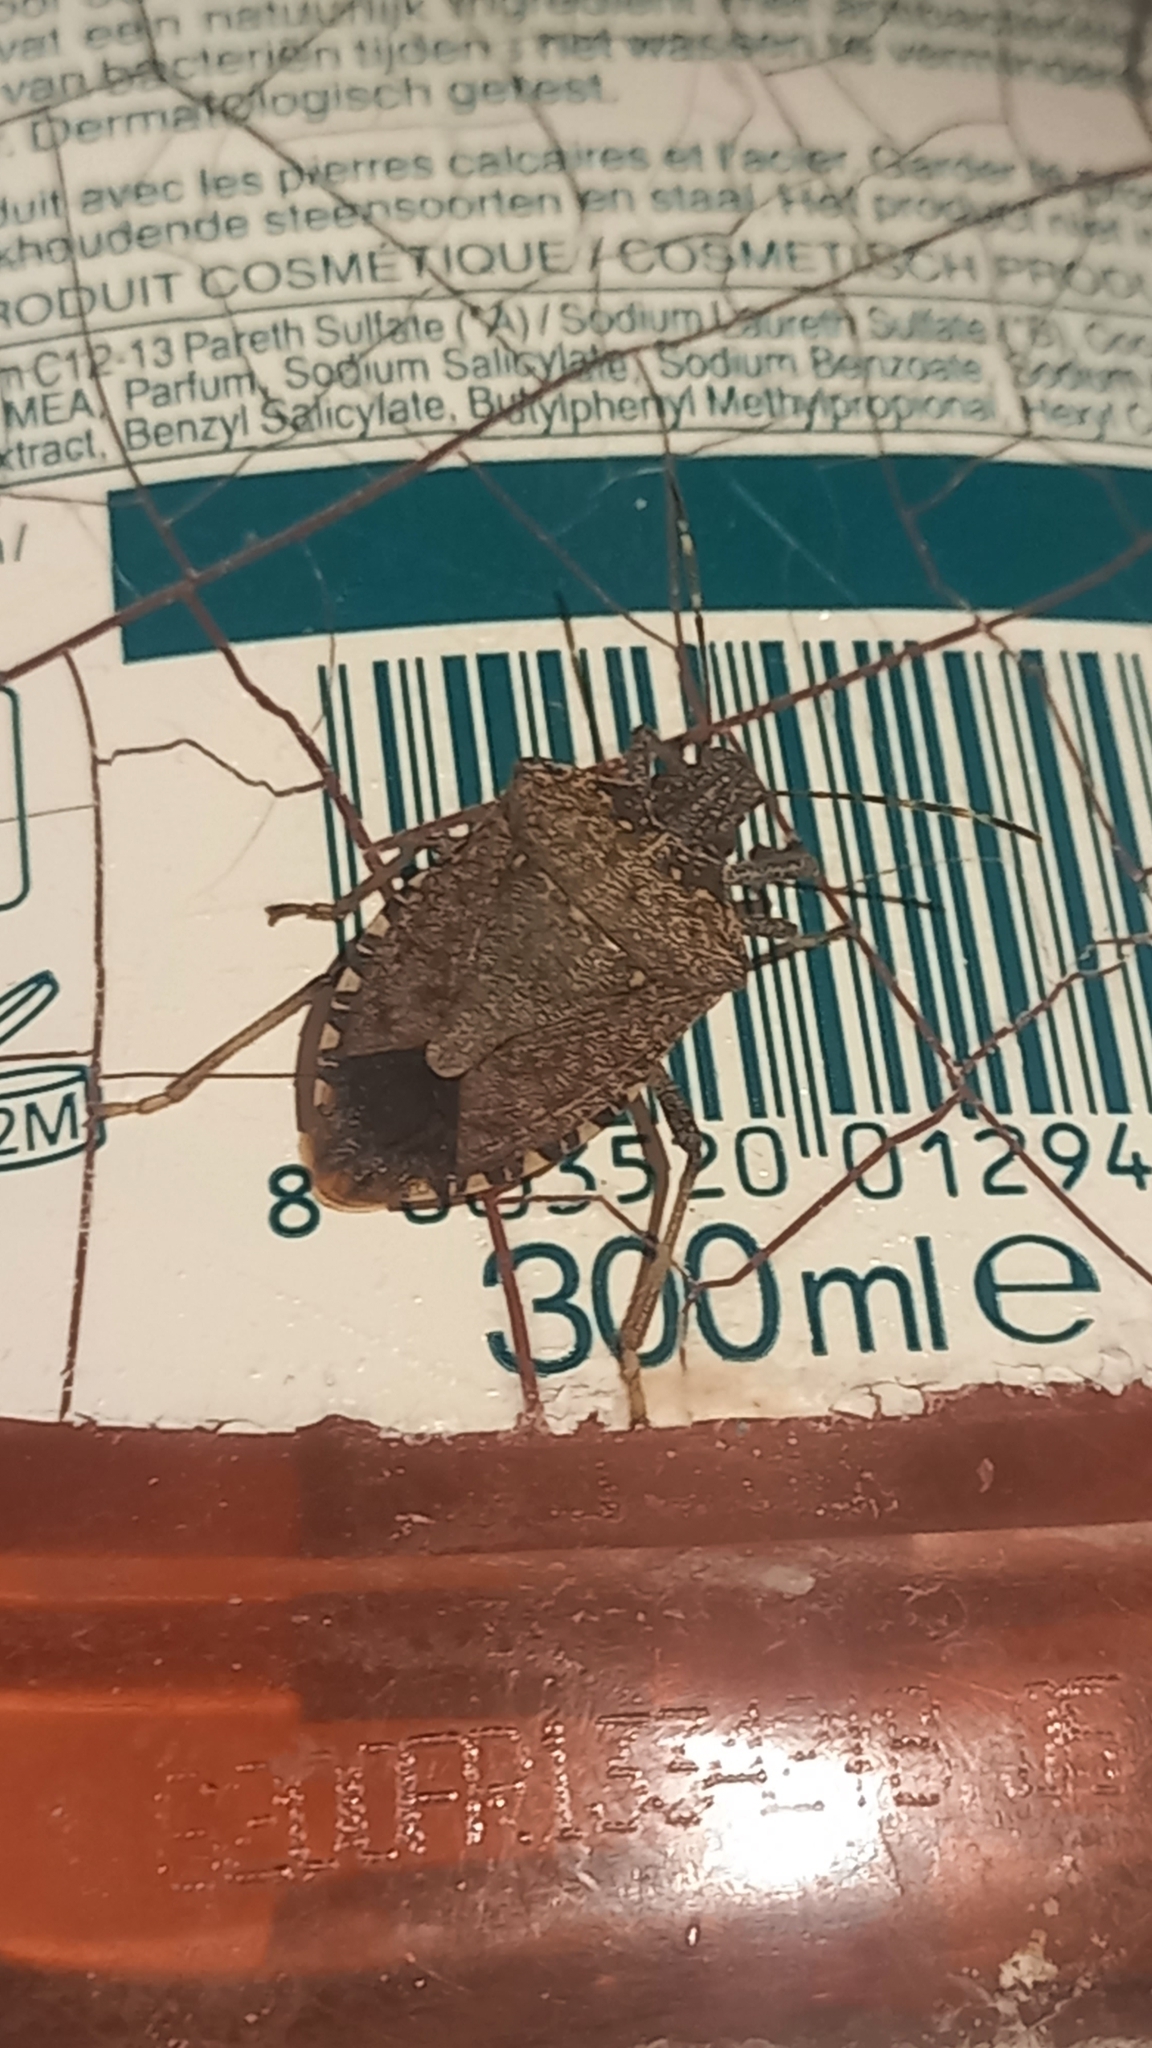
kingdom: Animalia
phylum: Arthropoda
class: Insecta
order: Hemiptera
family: Pentatomidae
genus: Halyomorpha
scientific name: Halyomorpha halys
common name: Brown marmorated stink bug
